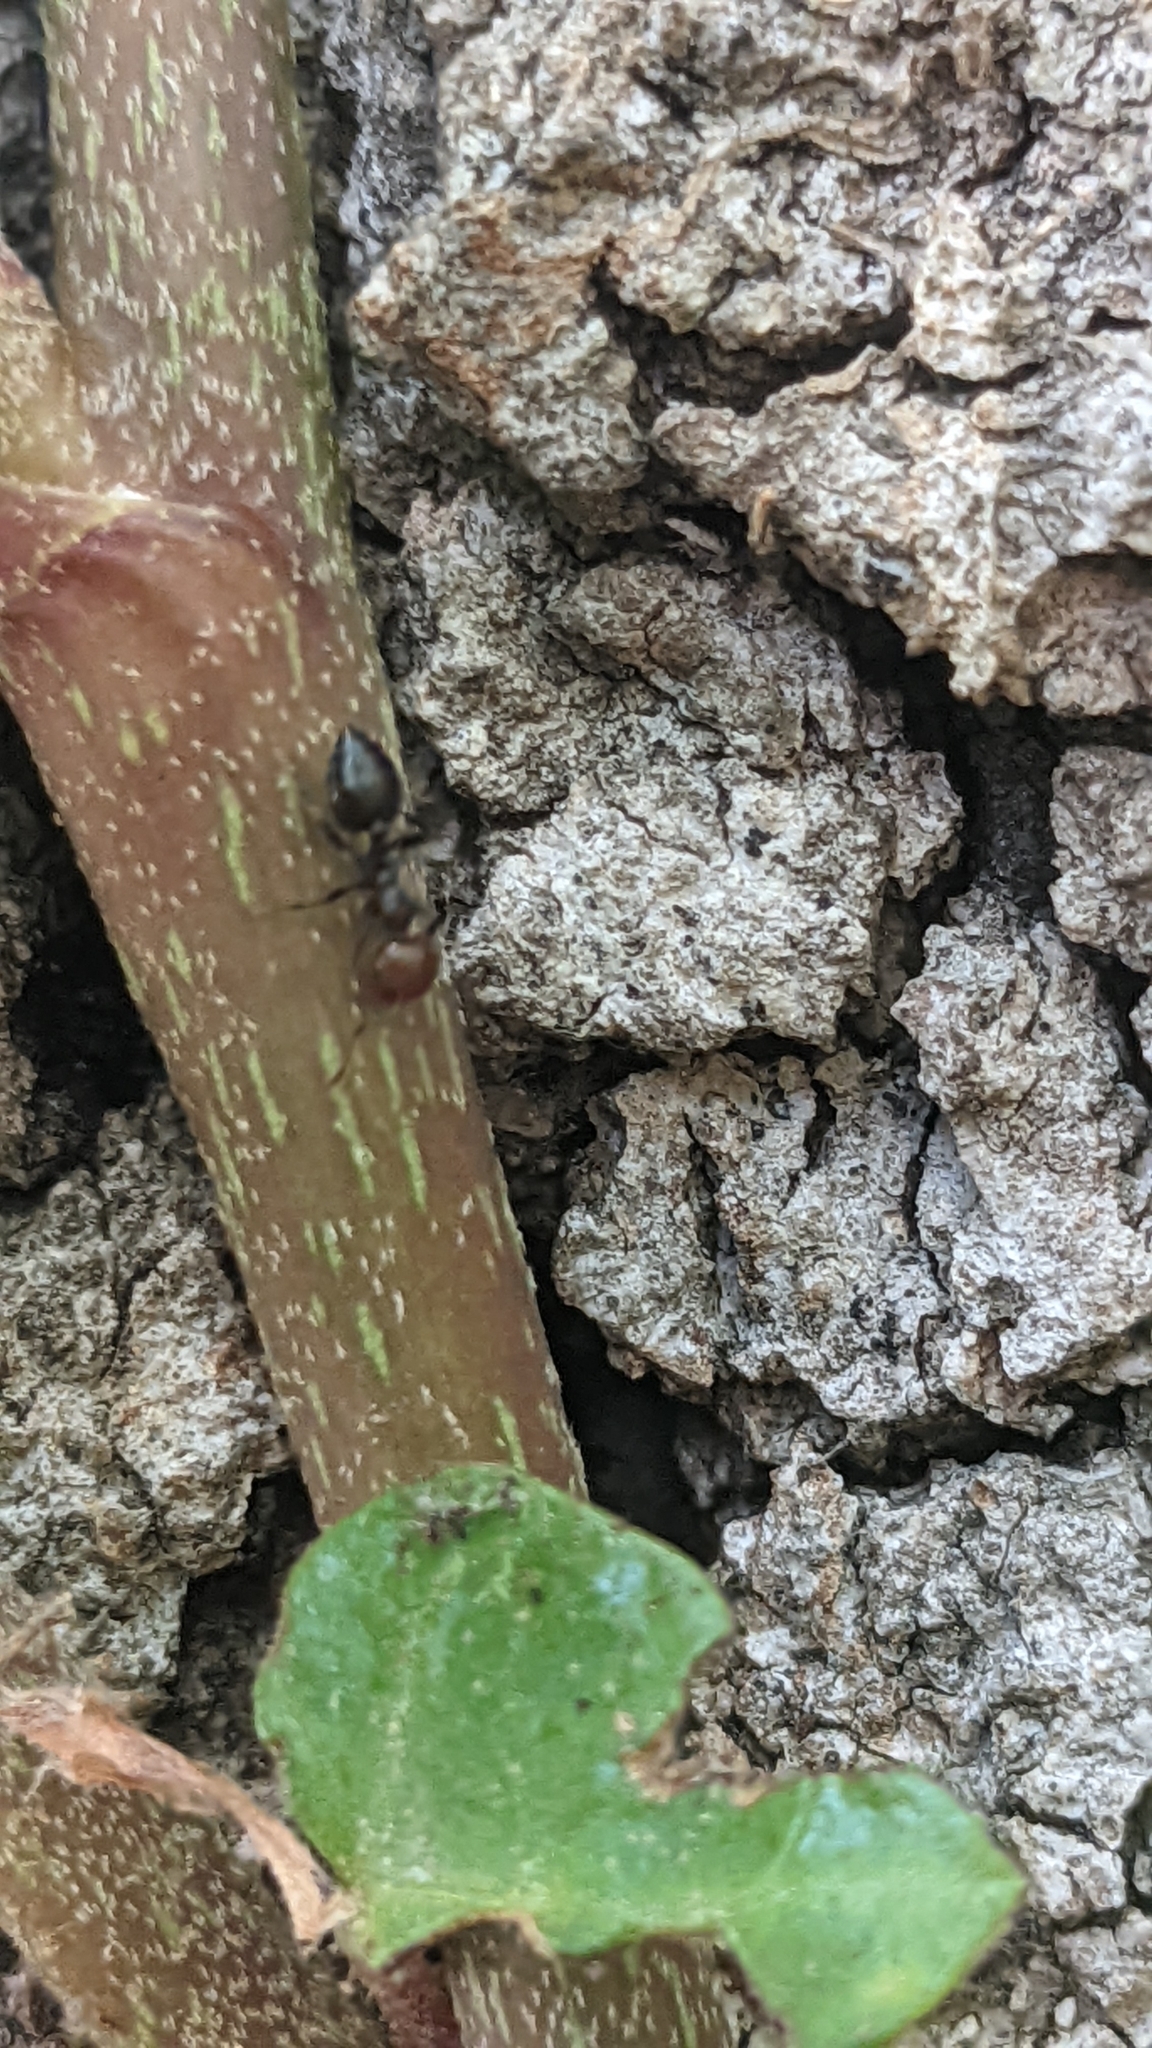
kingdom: Animalia
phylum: Arthropoda
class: Insecta
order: Hymenoptera
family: Formicidae
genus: Crematogaster
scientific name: Crematogaster scutellaris
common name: Fourmi du liège
